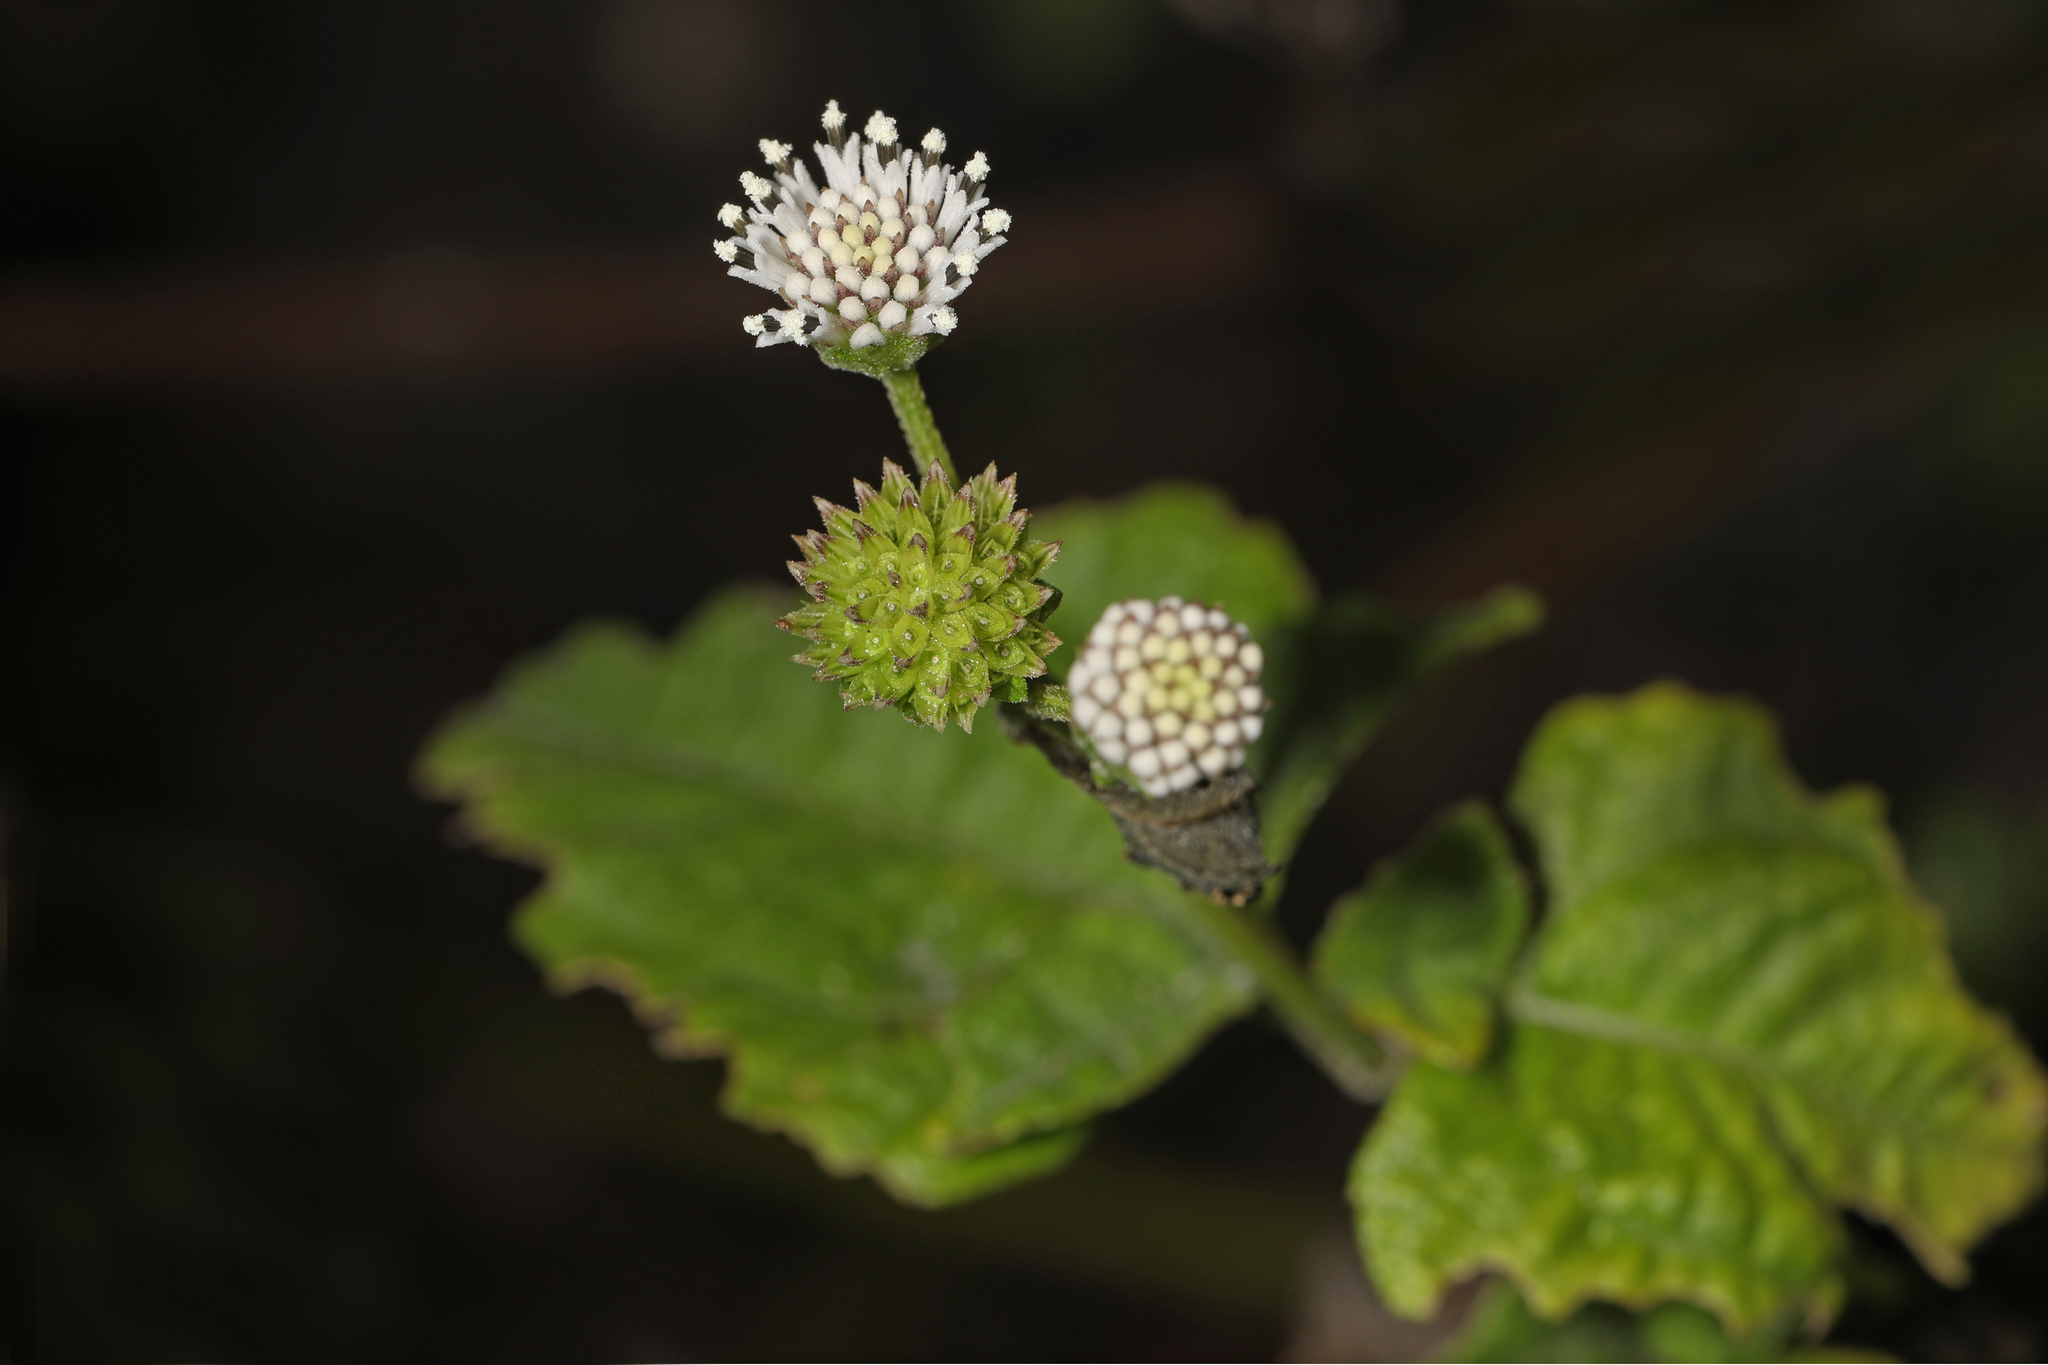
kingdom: Plantae
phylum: Tracheophyta
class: Magnoliopsida
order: Asterales
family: Asteraceae
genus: Melanthera
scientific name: Melanthera nivea
